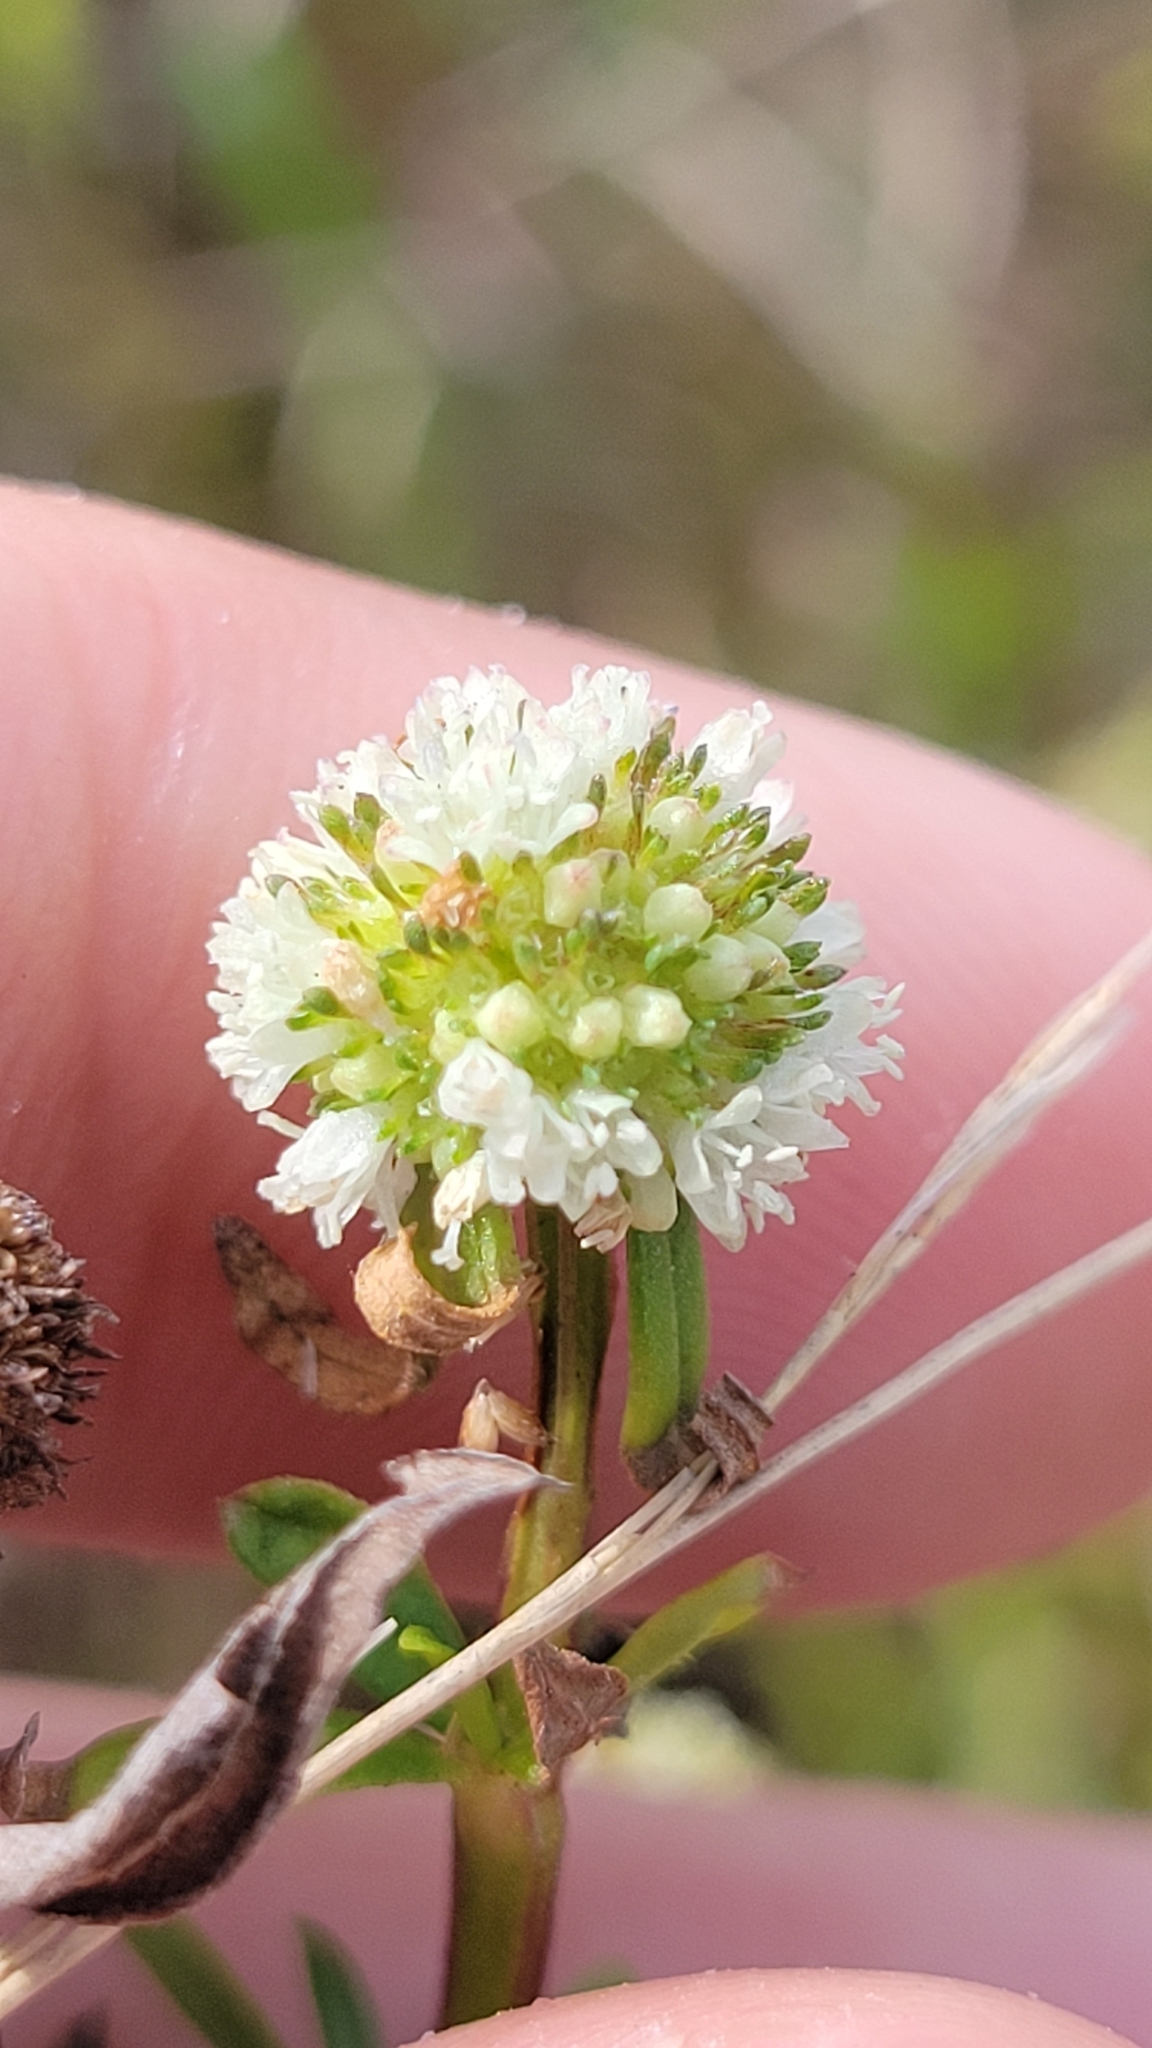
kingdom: Plantae
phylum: Tracheophyta
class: Magnoliopsida
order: Gentianales
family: Rubiaceae
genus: Spermacoce
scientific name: Spermacoce verticillata
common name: Shrubby false buttonweed
